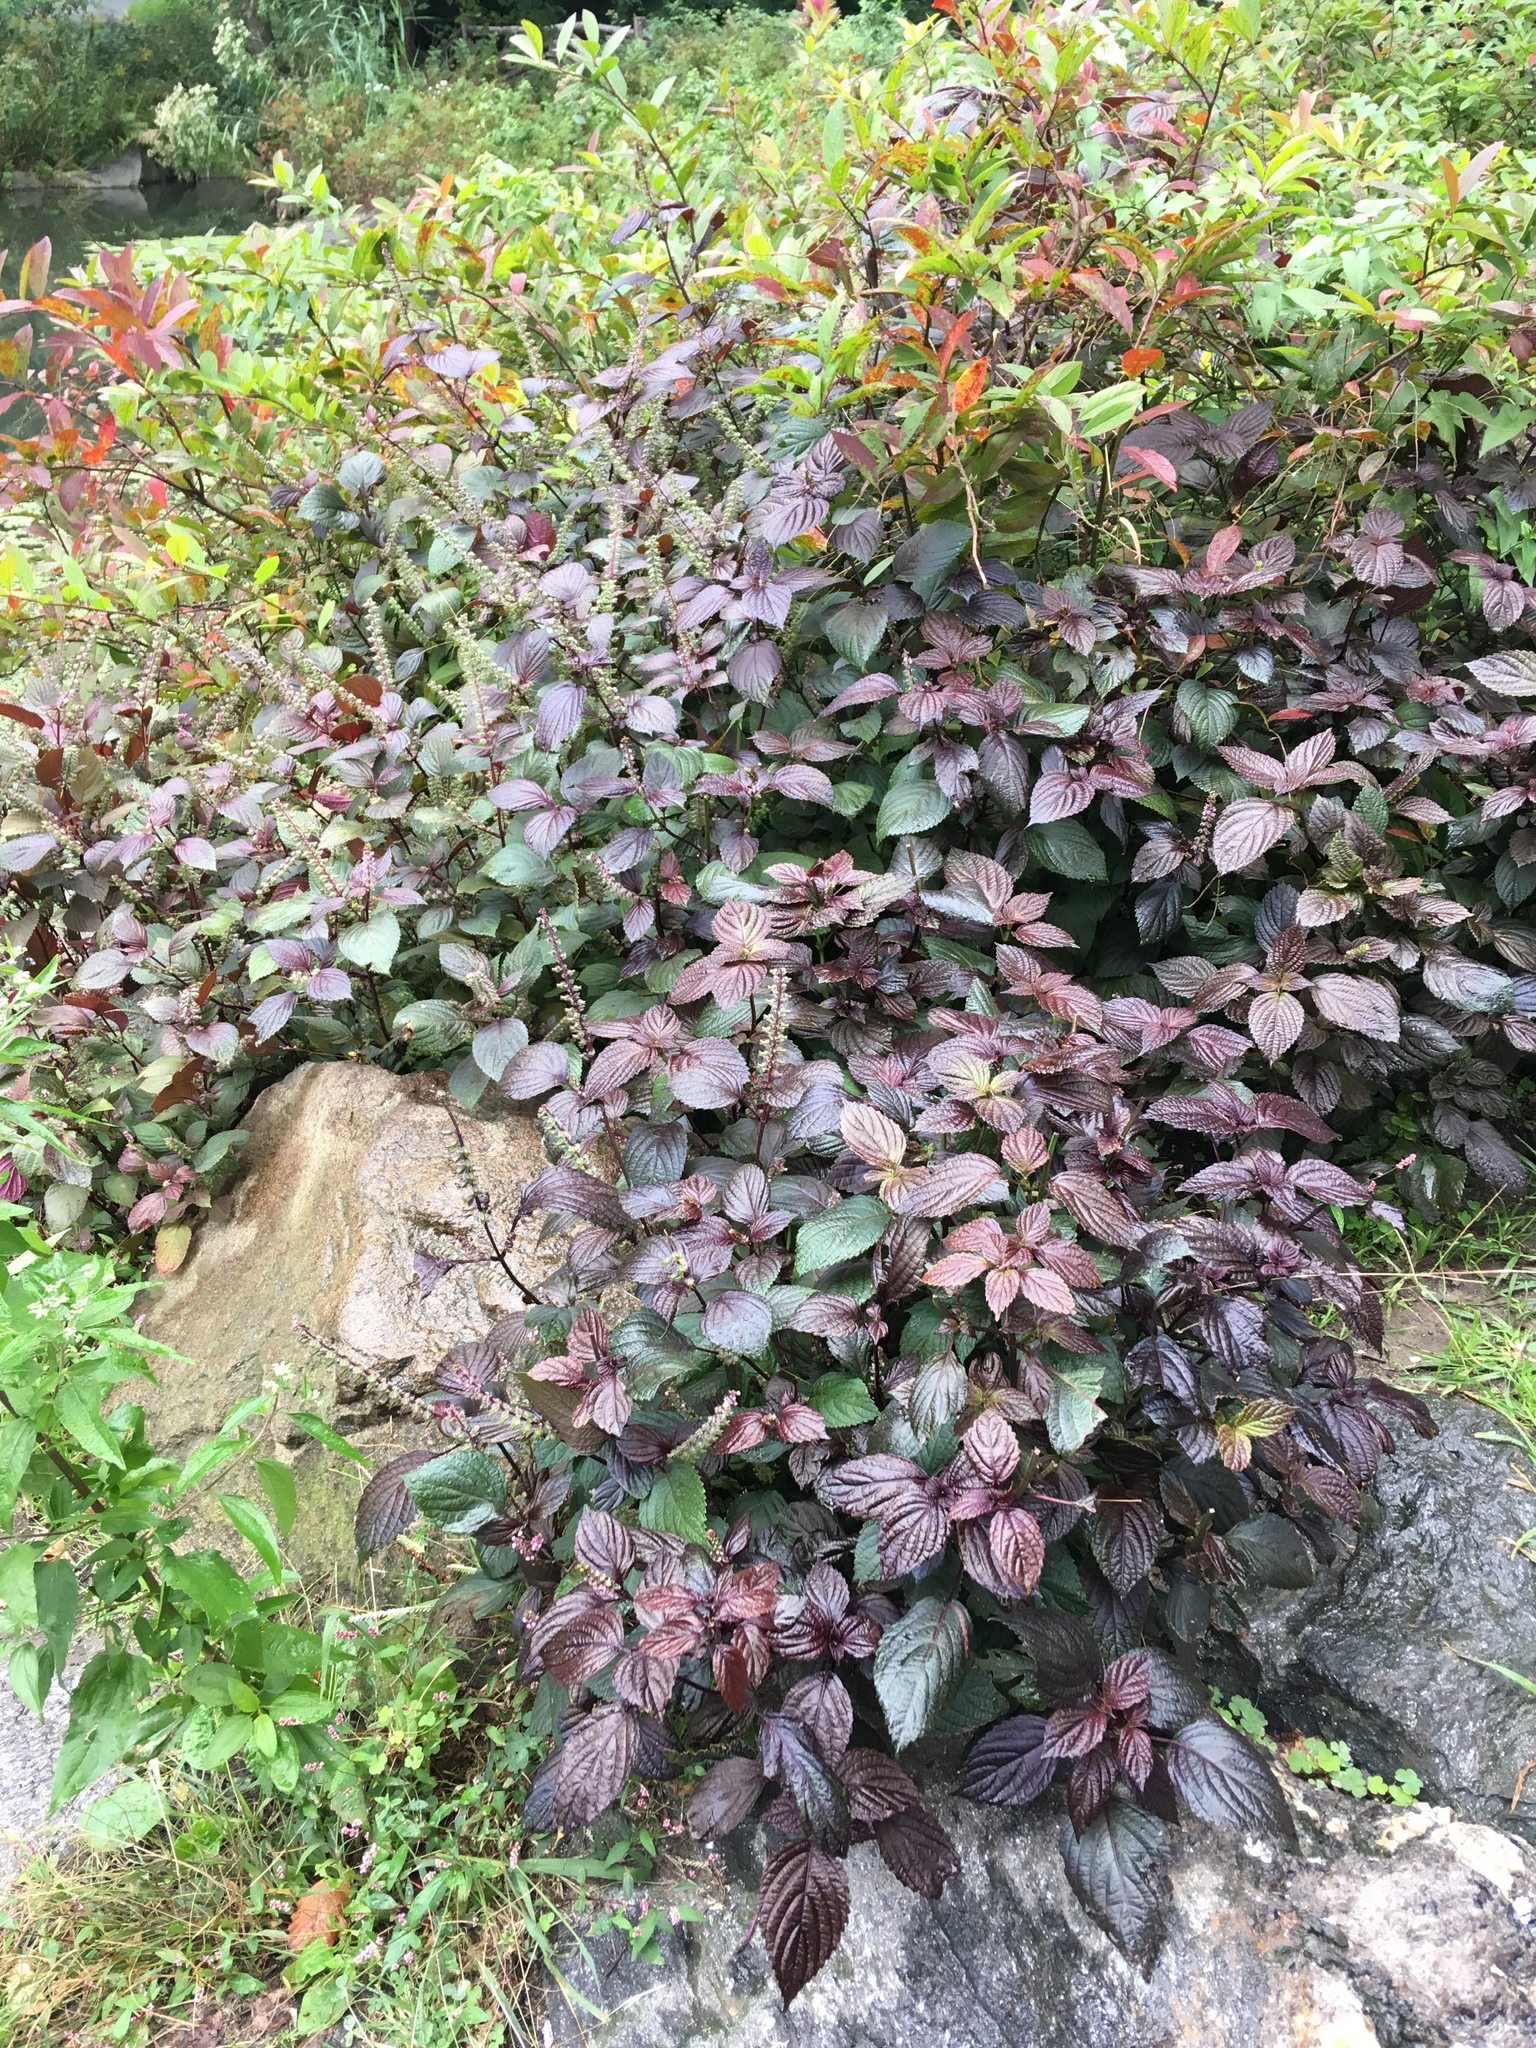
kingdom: Plantae
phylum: Tracheophyta
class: Magnoliopsida
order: Lamiales
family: Lamiaceae
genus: Perilla
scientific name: Perilla frutescens
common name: Perilla
